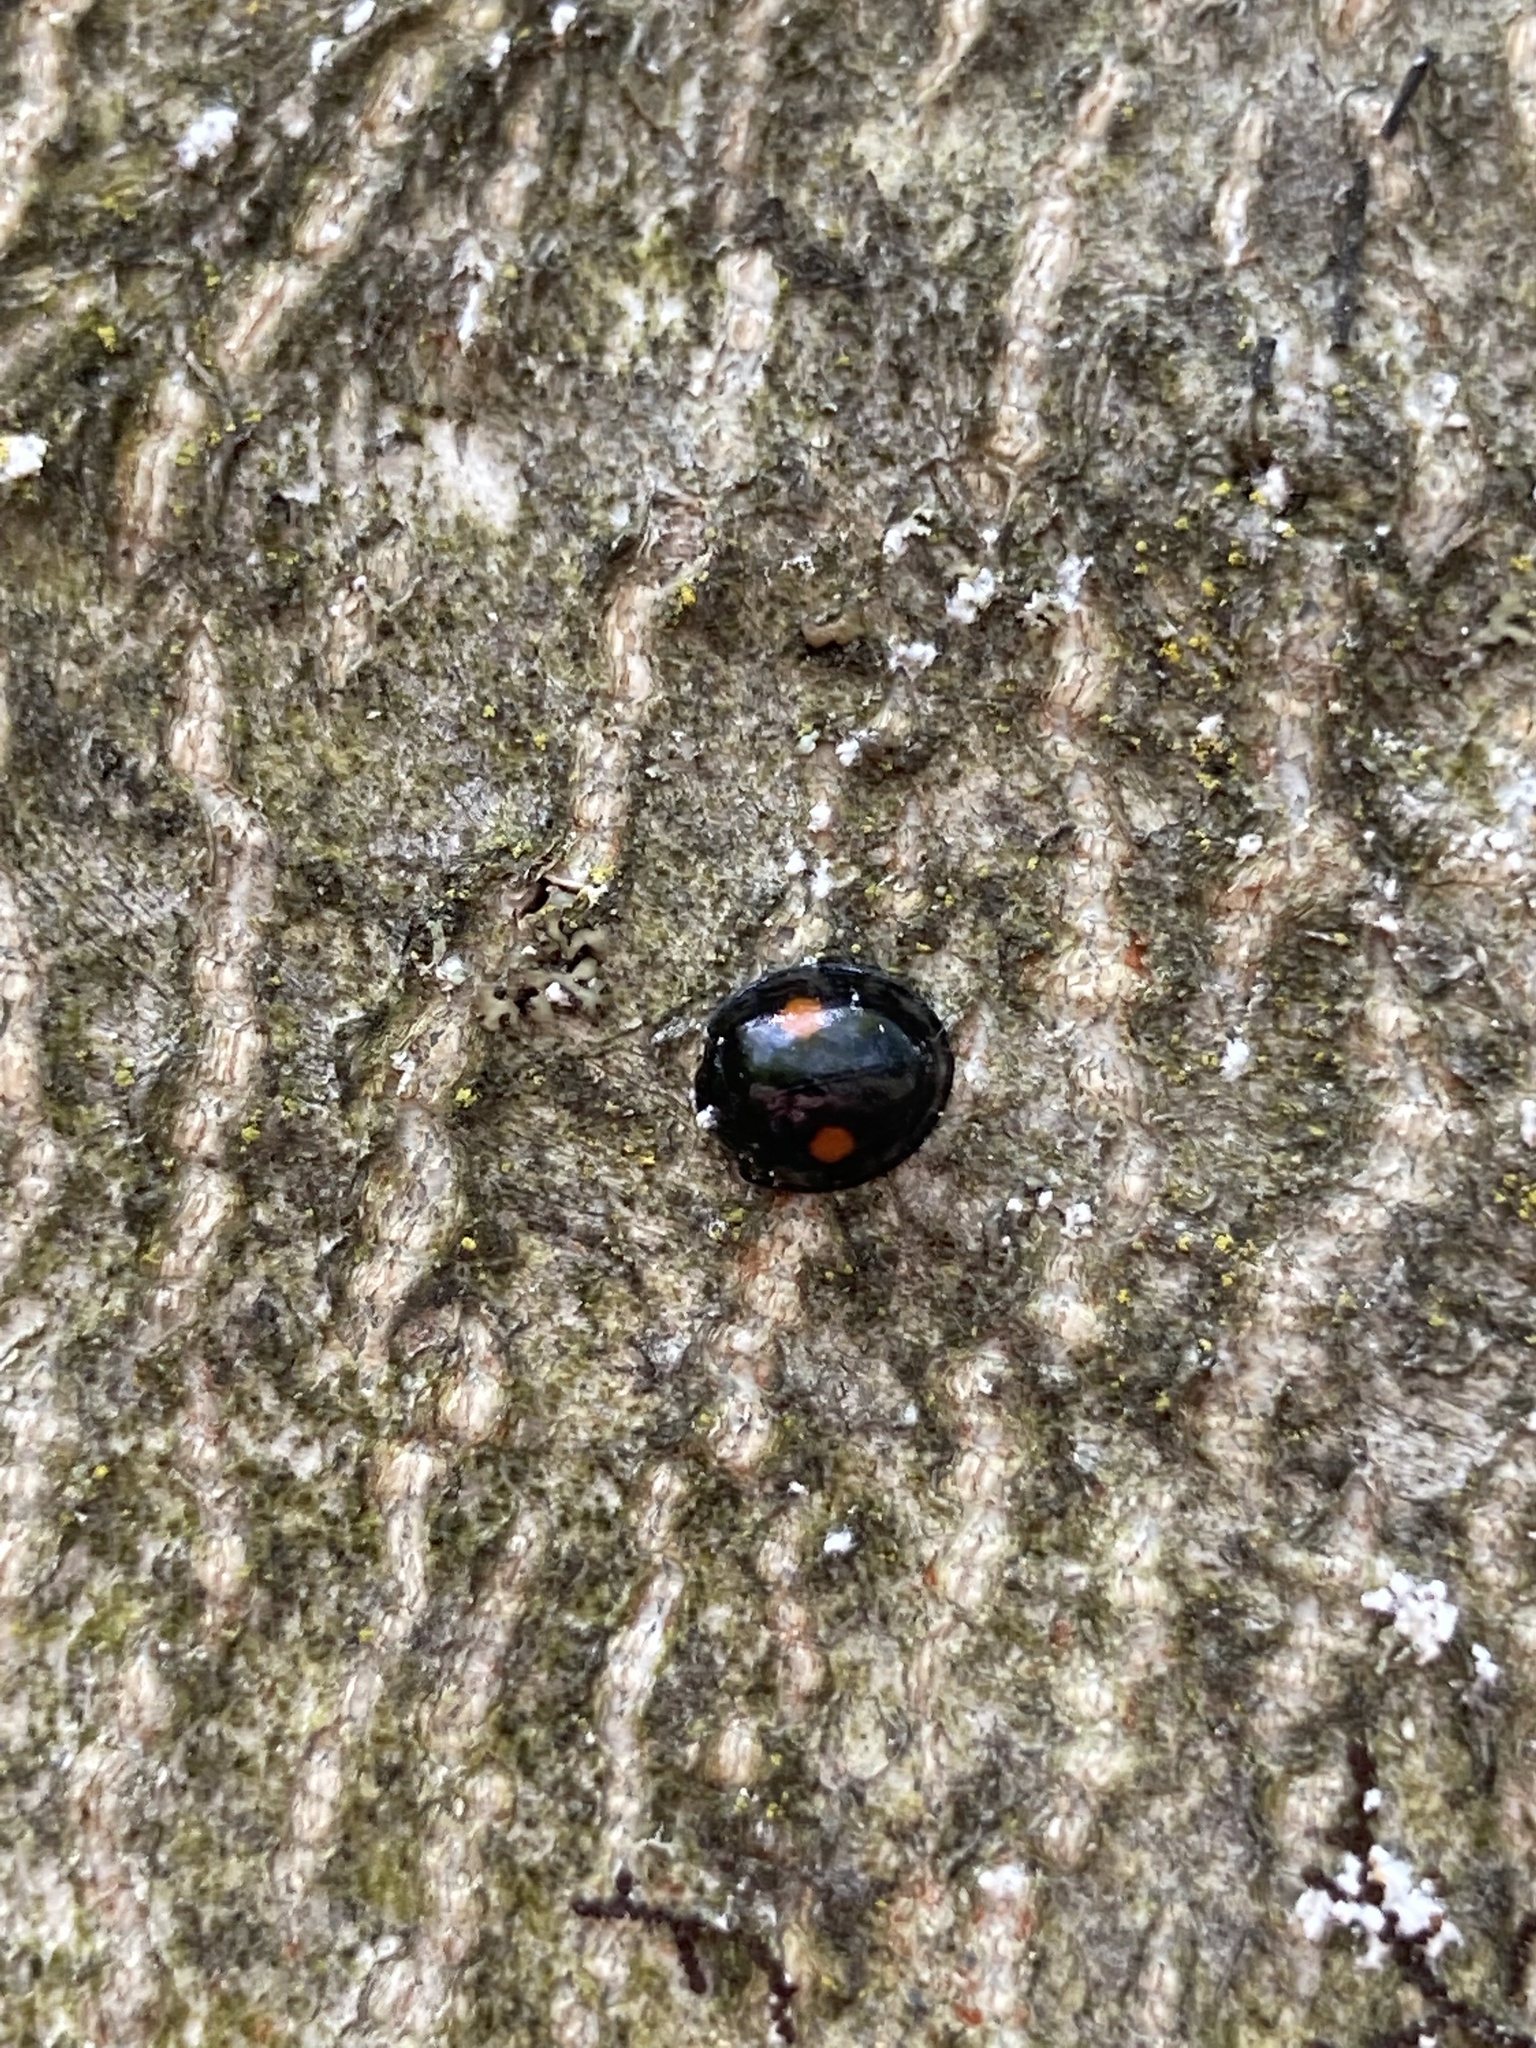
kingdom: Animalia
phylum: Arthropoda
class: Insecta
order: Coleoptera
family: Coccinellidae
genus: Chilocorus
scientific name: Chilocorus stigma
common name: Twicestabbed lady beetle
